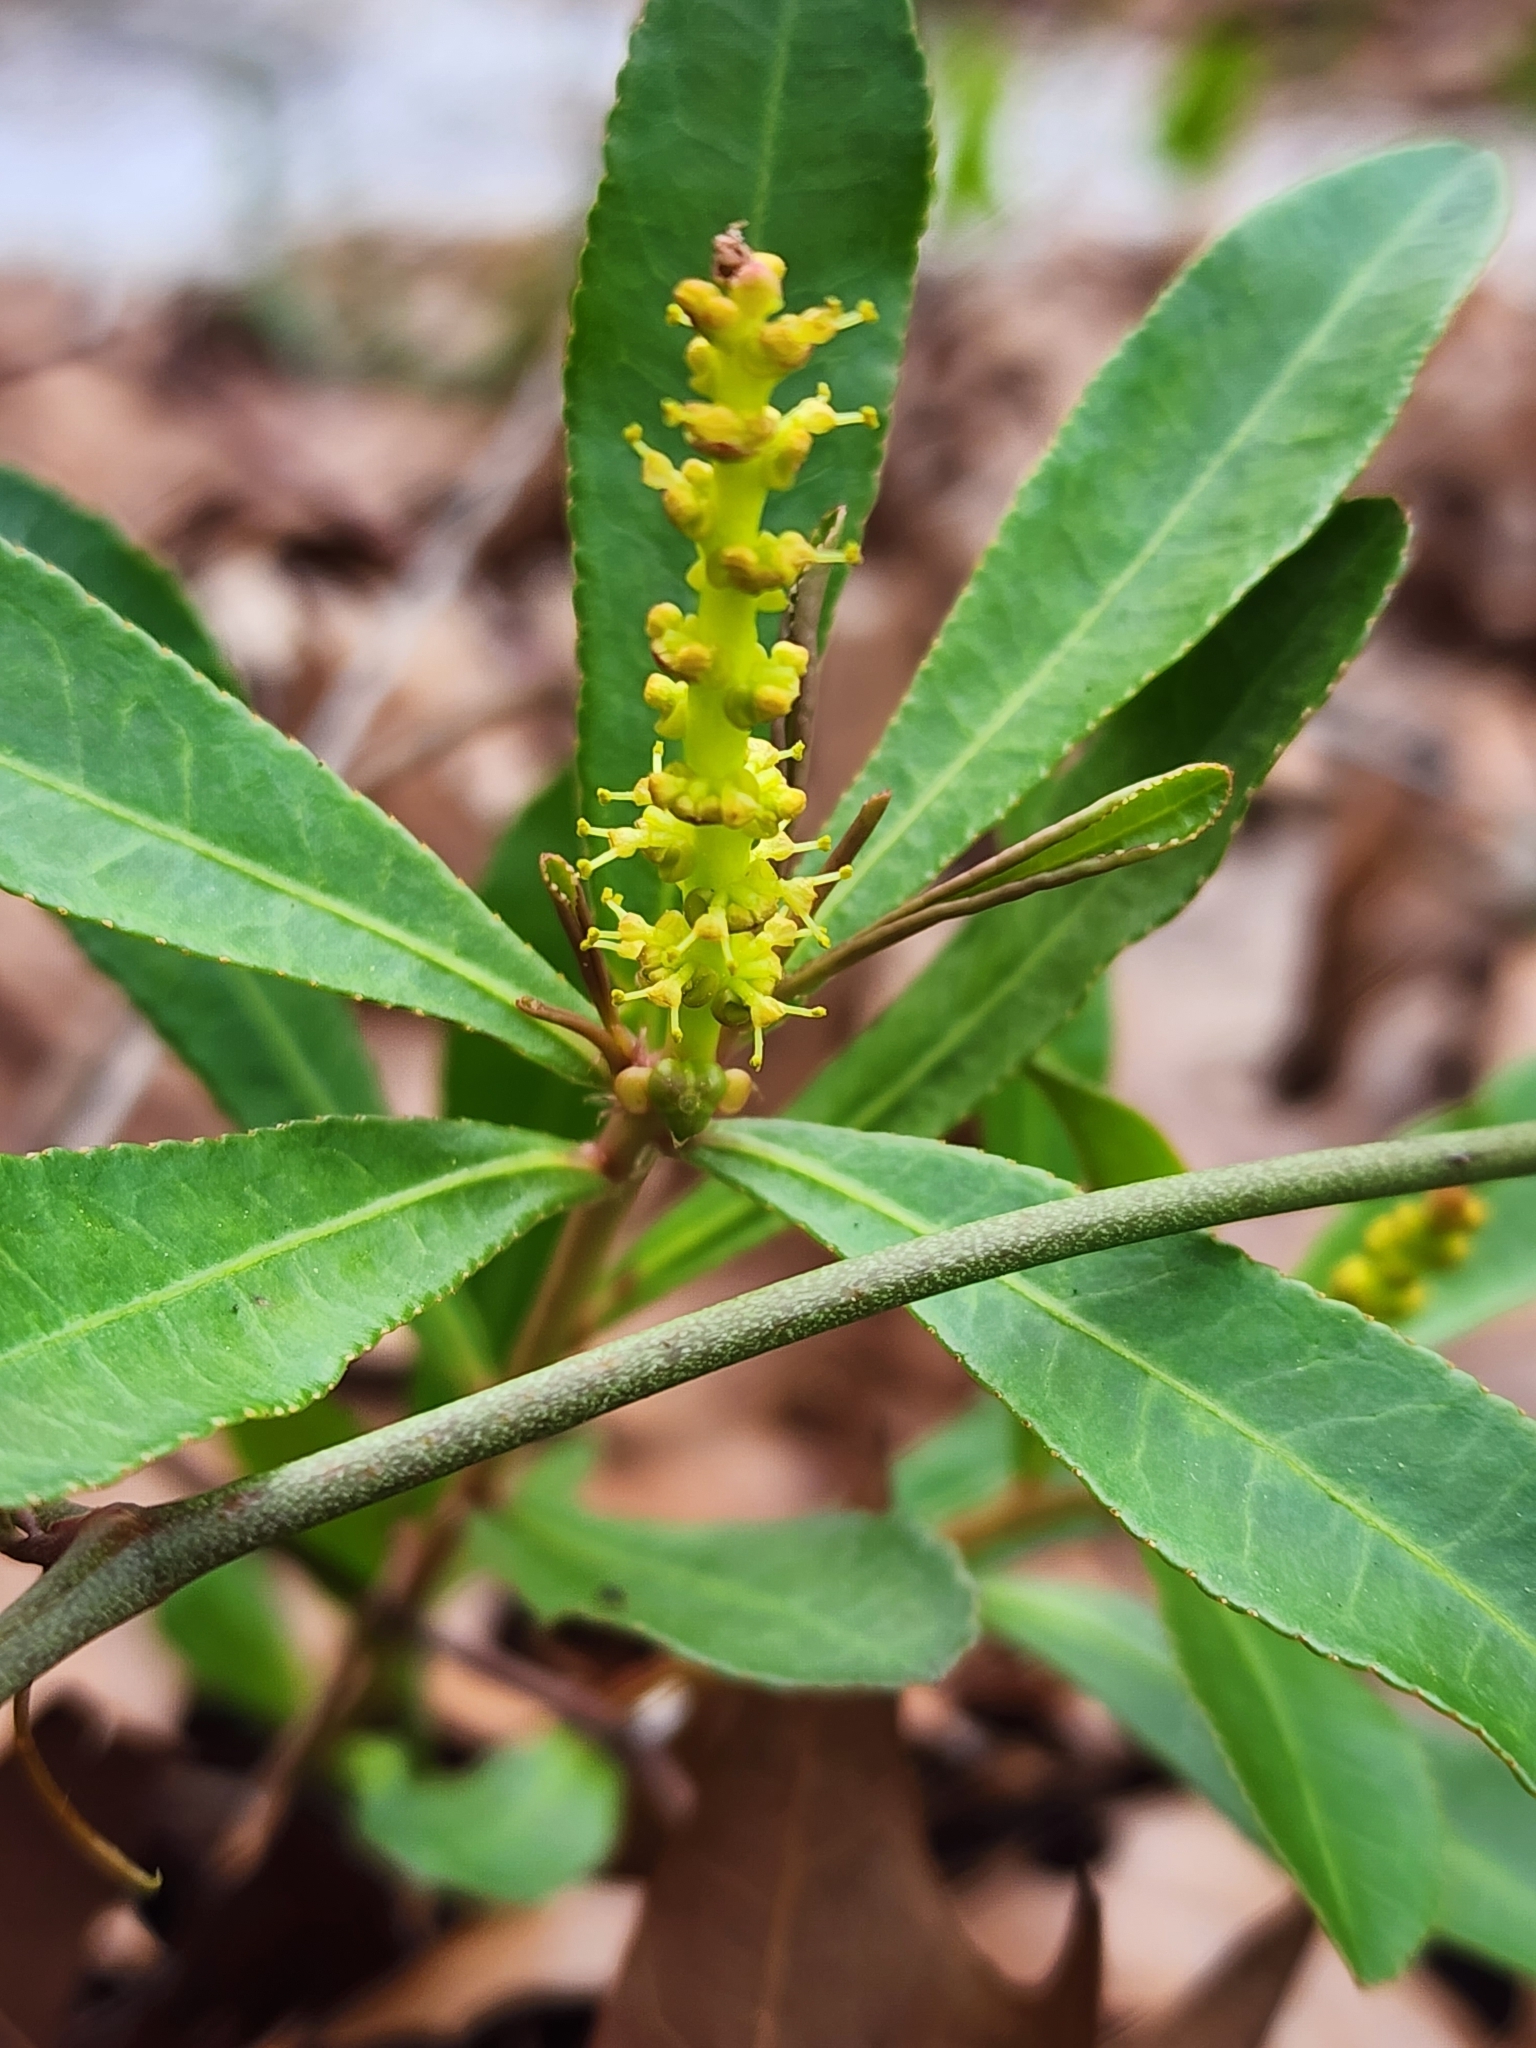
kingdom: Plantae
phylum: Tracheophyta
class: Magnoliopsida
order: Malpighiales
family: Euphorbiaceae
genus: Stillingia
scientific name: Stillingia sylvatica
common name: Queen's-delight
